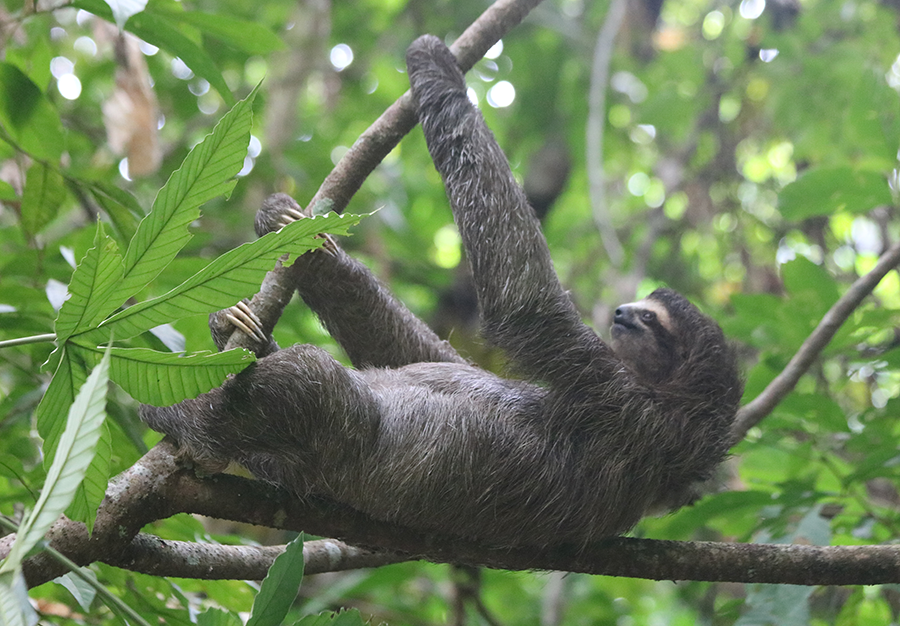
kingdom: Animalia
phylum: Chordata
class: Mammalia
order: Pilosa
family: Bradypodidae
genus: Bradypus
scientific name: Bradypus variegatus
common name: Brown-throated three-toed sloth
